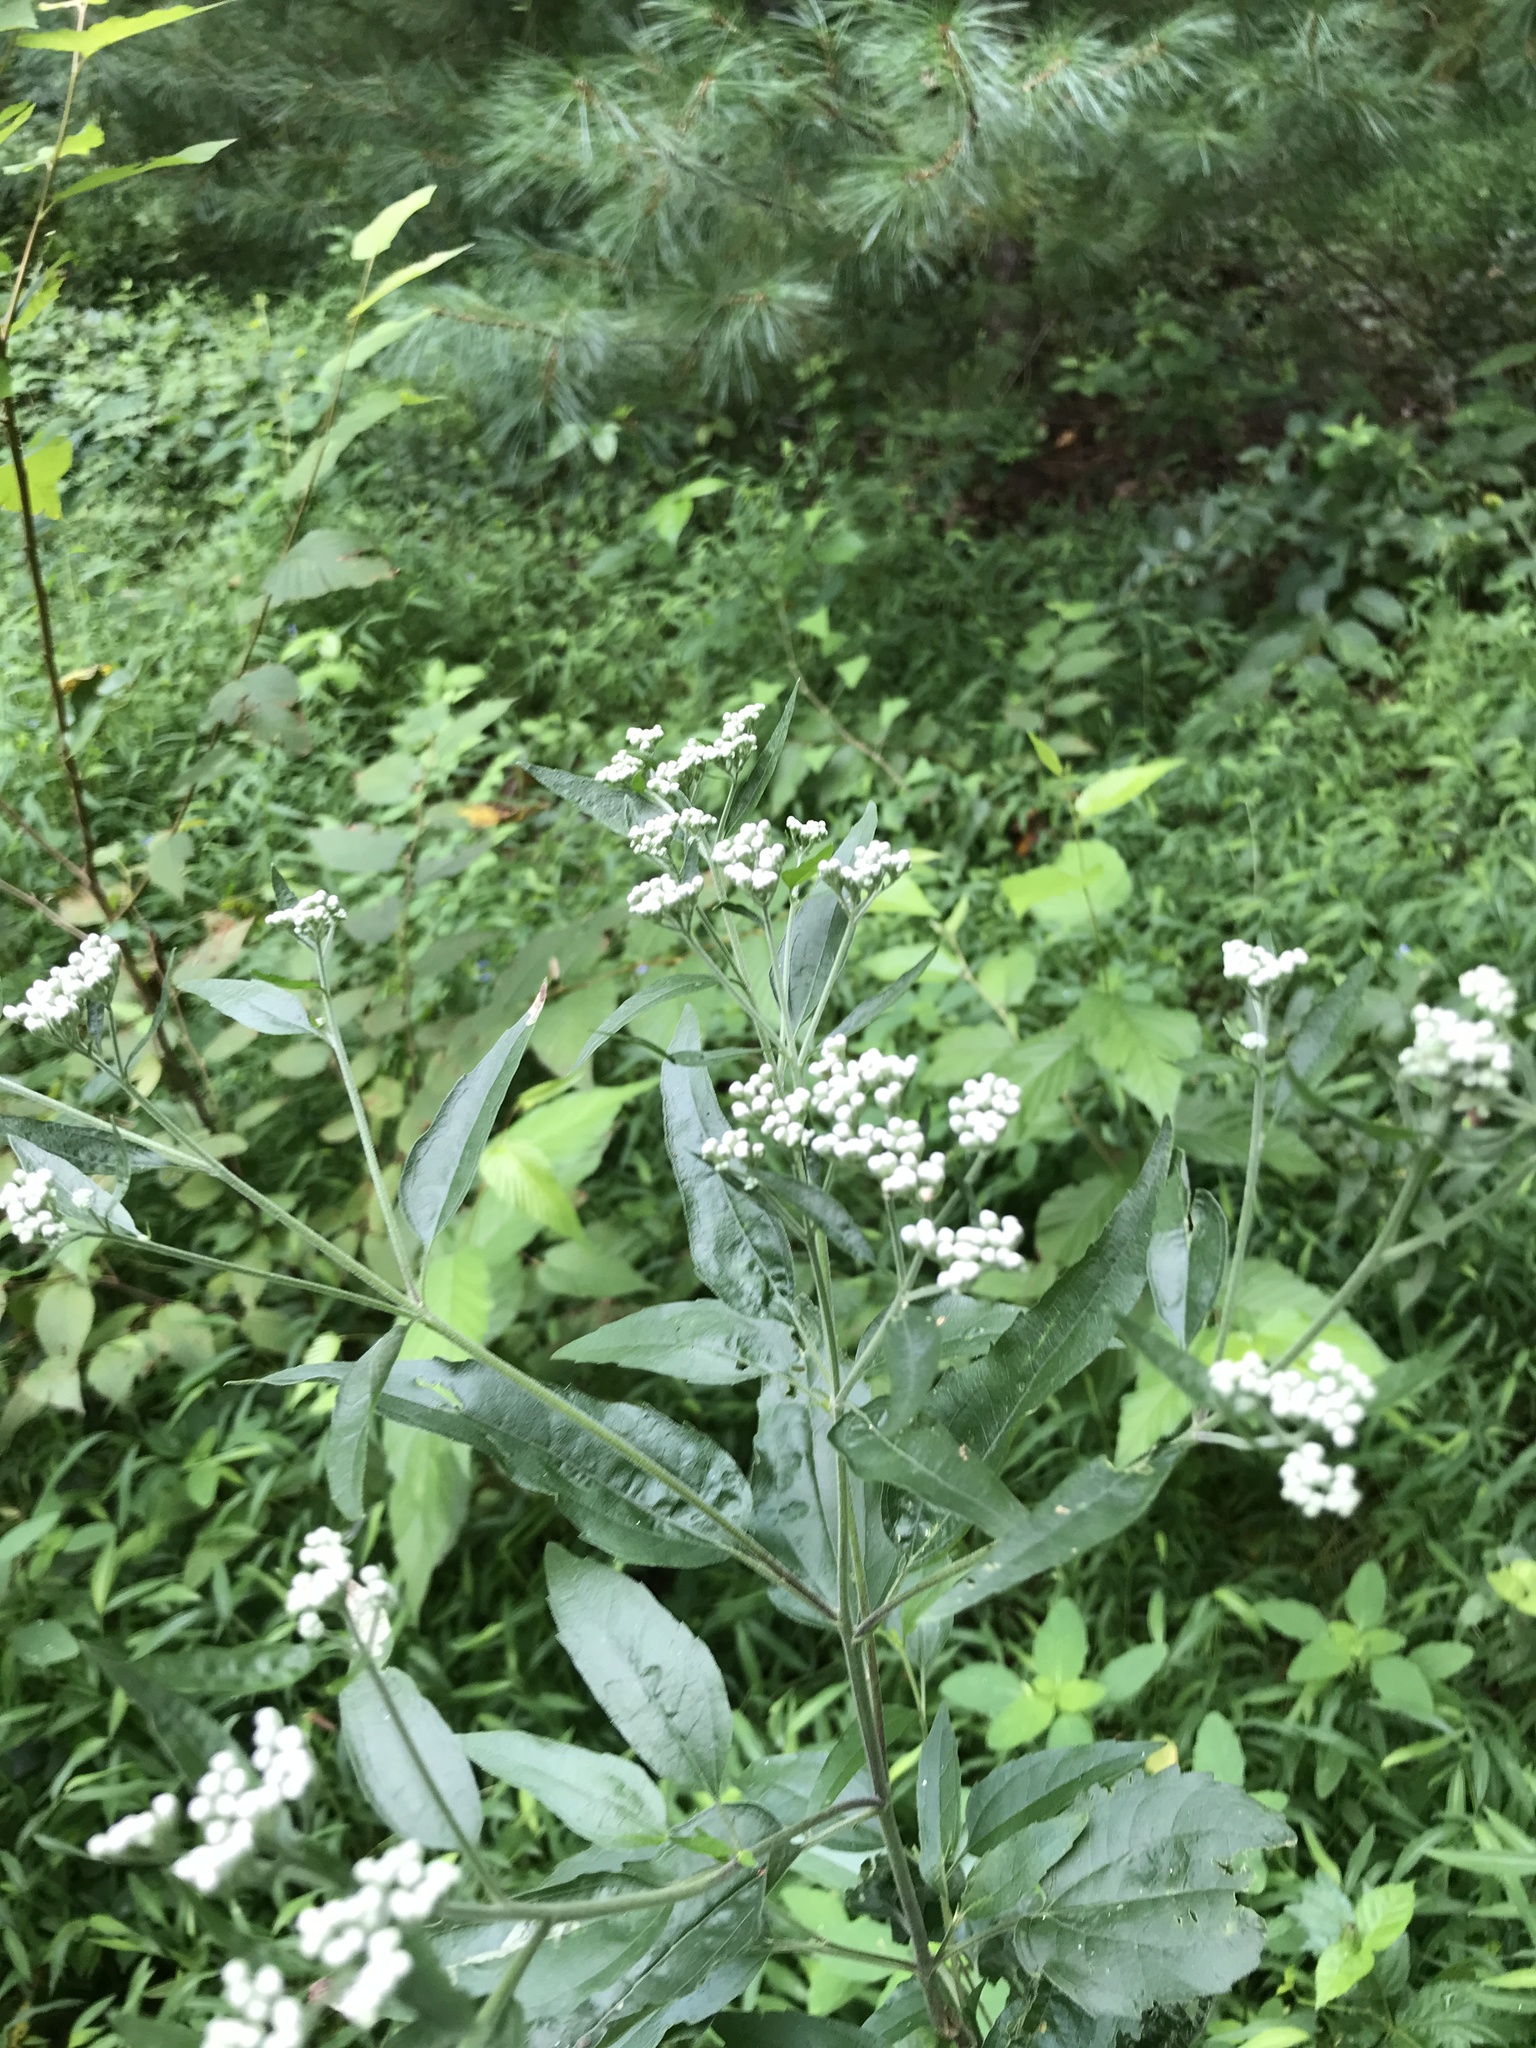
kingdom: Plantae
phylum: Tracheophyta
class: Magnoliopsida
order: Asterales
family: Asteraceae
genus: Eupatorium
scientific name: Eupatorium serotinum
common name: Late boneset
